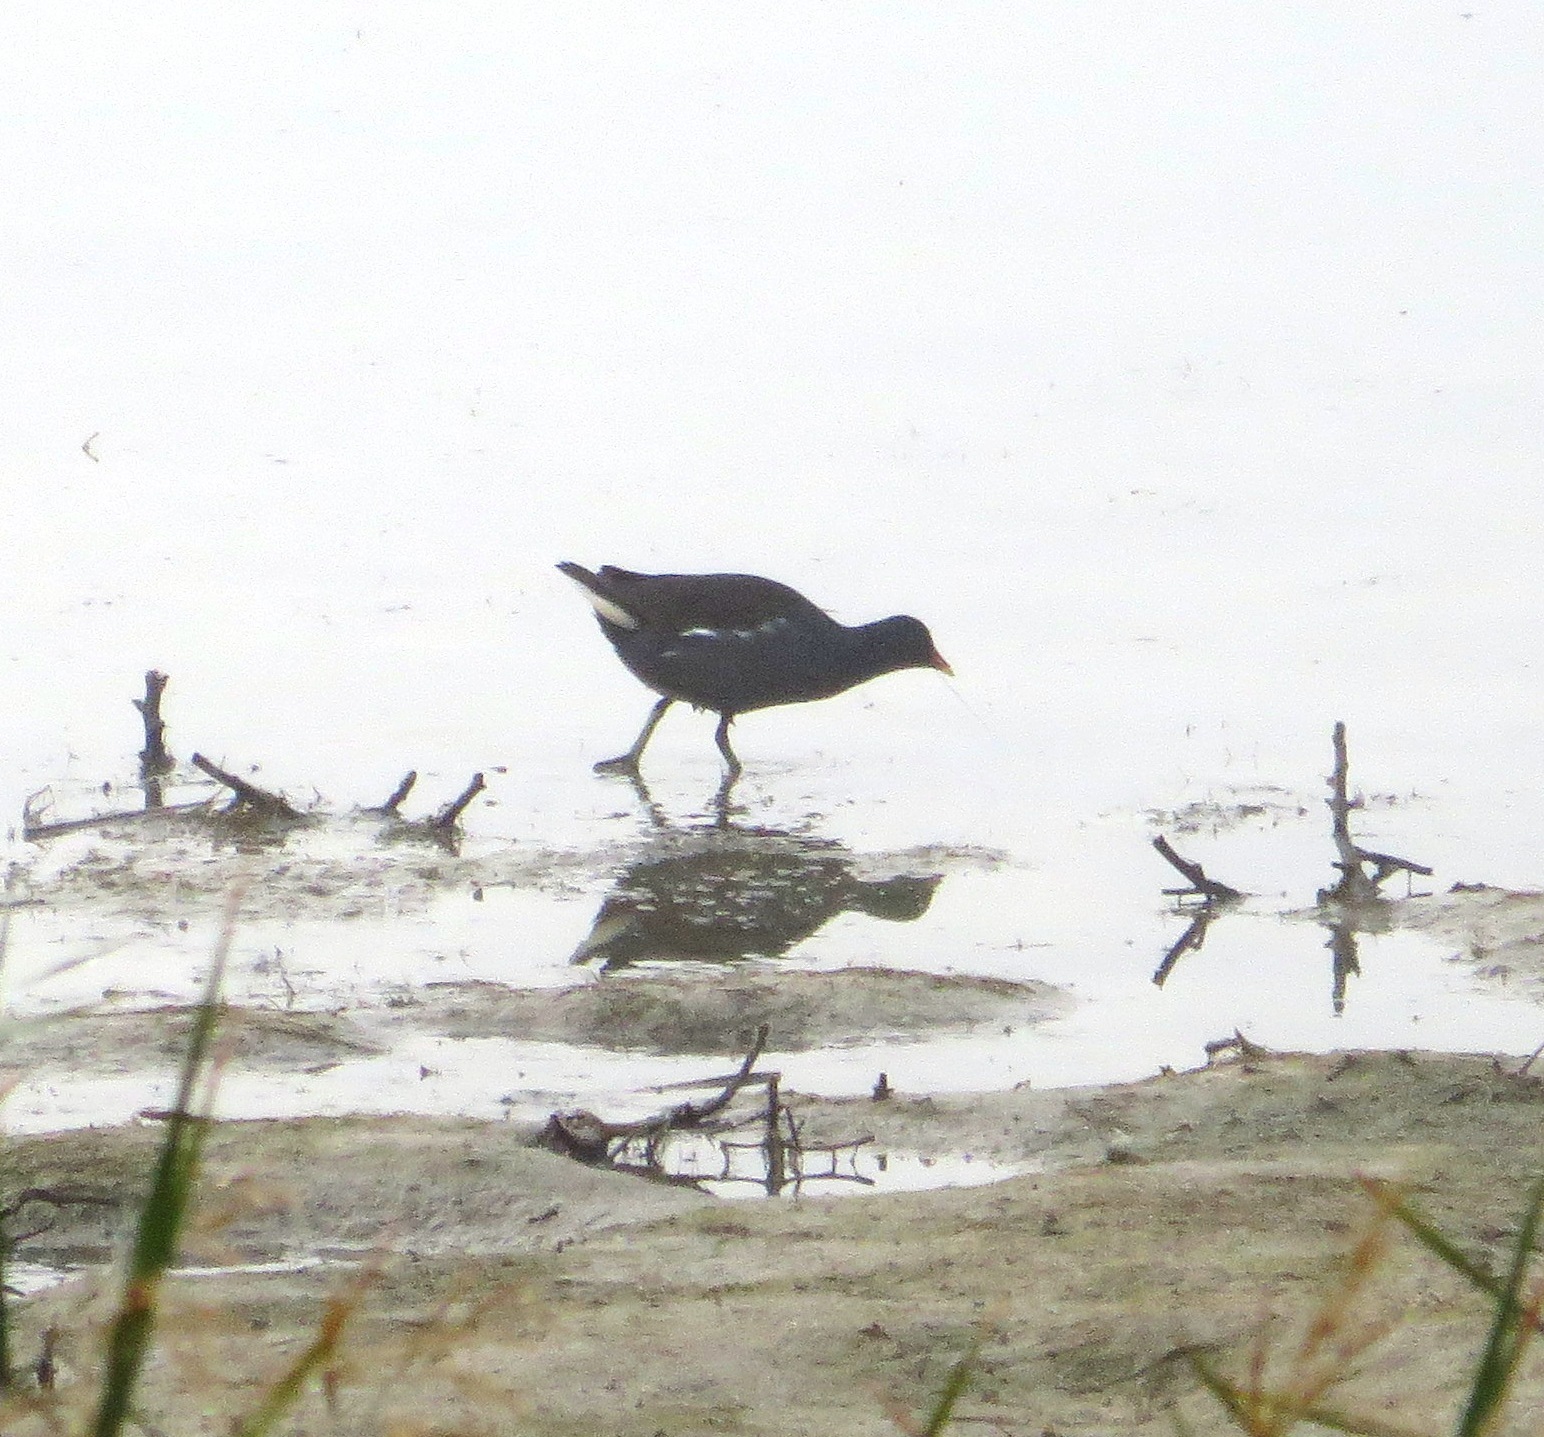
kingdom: Animalia
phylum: Chordata
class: Aves
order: Gruiformes
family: Rallidae
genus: Gallinula
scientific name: Gallinula chloropus
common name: Common moorhen
